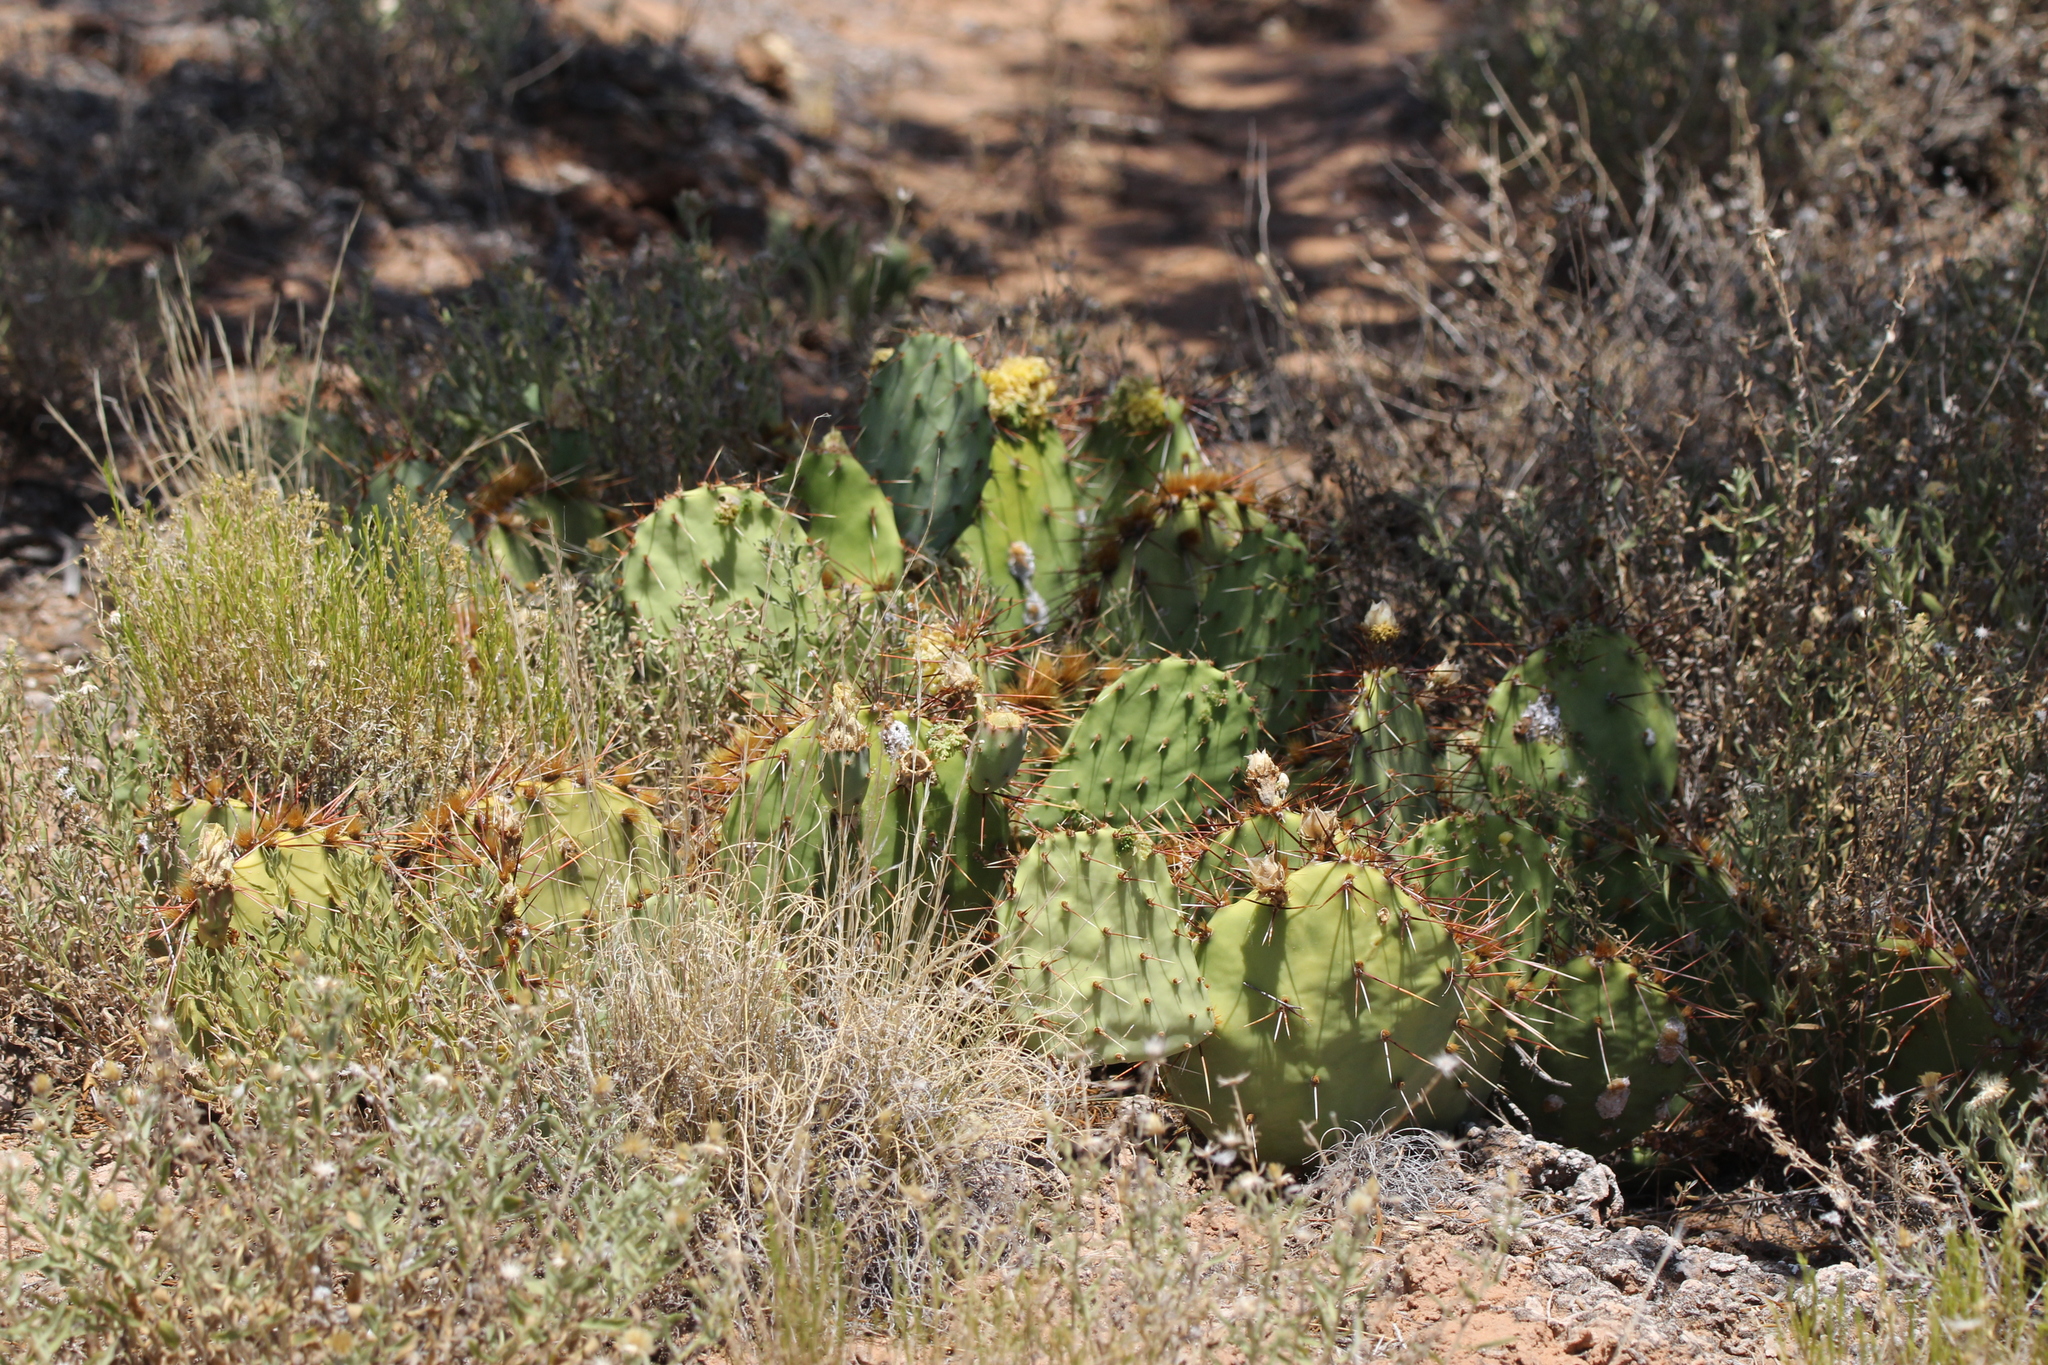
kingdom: Plantae
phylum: Tracheophyta
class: Magnoliopsida
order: Caryophyllales
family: Cactaceae
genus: Opuntia
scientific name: Opuntia polyacantha
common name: Plains prickly-pear
